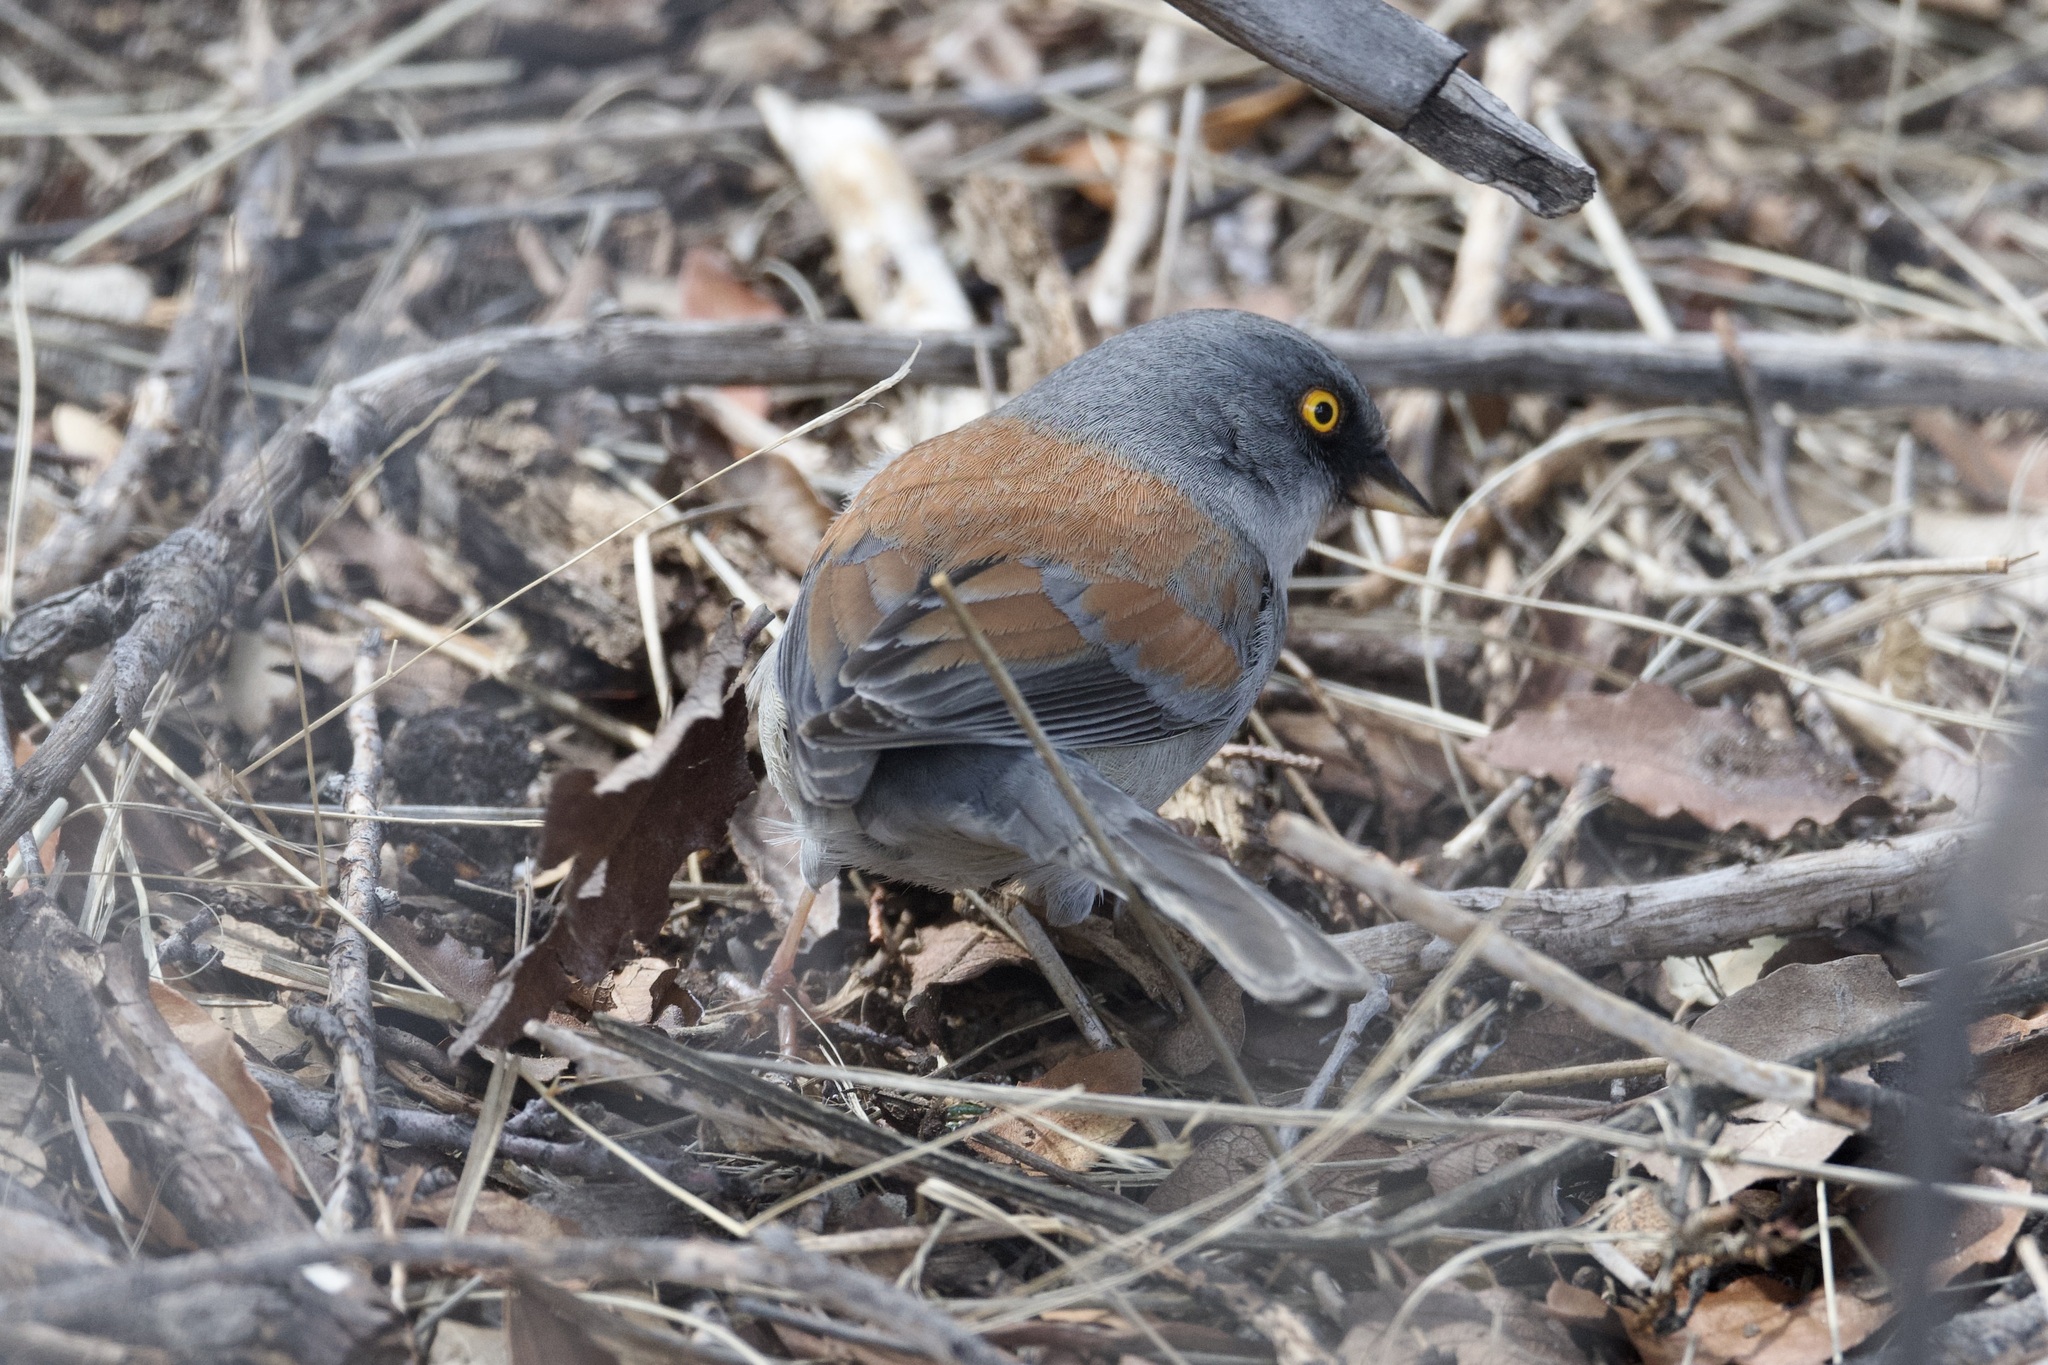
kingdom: Animalia
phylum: Chordata
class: Aves
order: Passeriformes
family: Passerellidae
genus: Junco
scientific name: Junco phaeonotus
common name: Yellow-eyed junco
